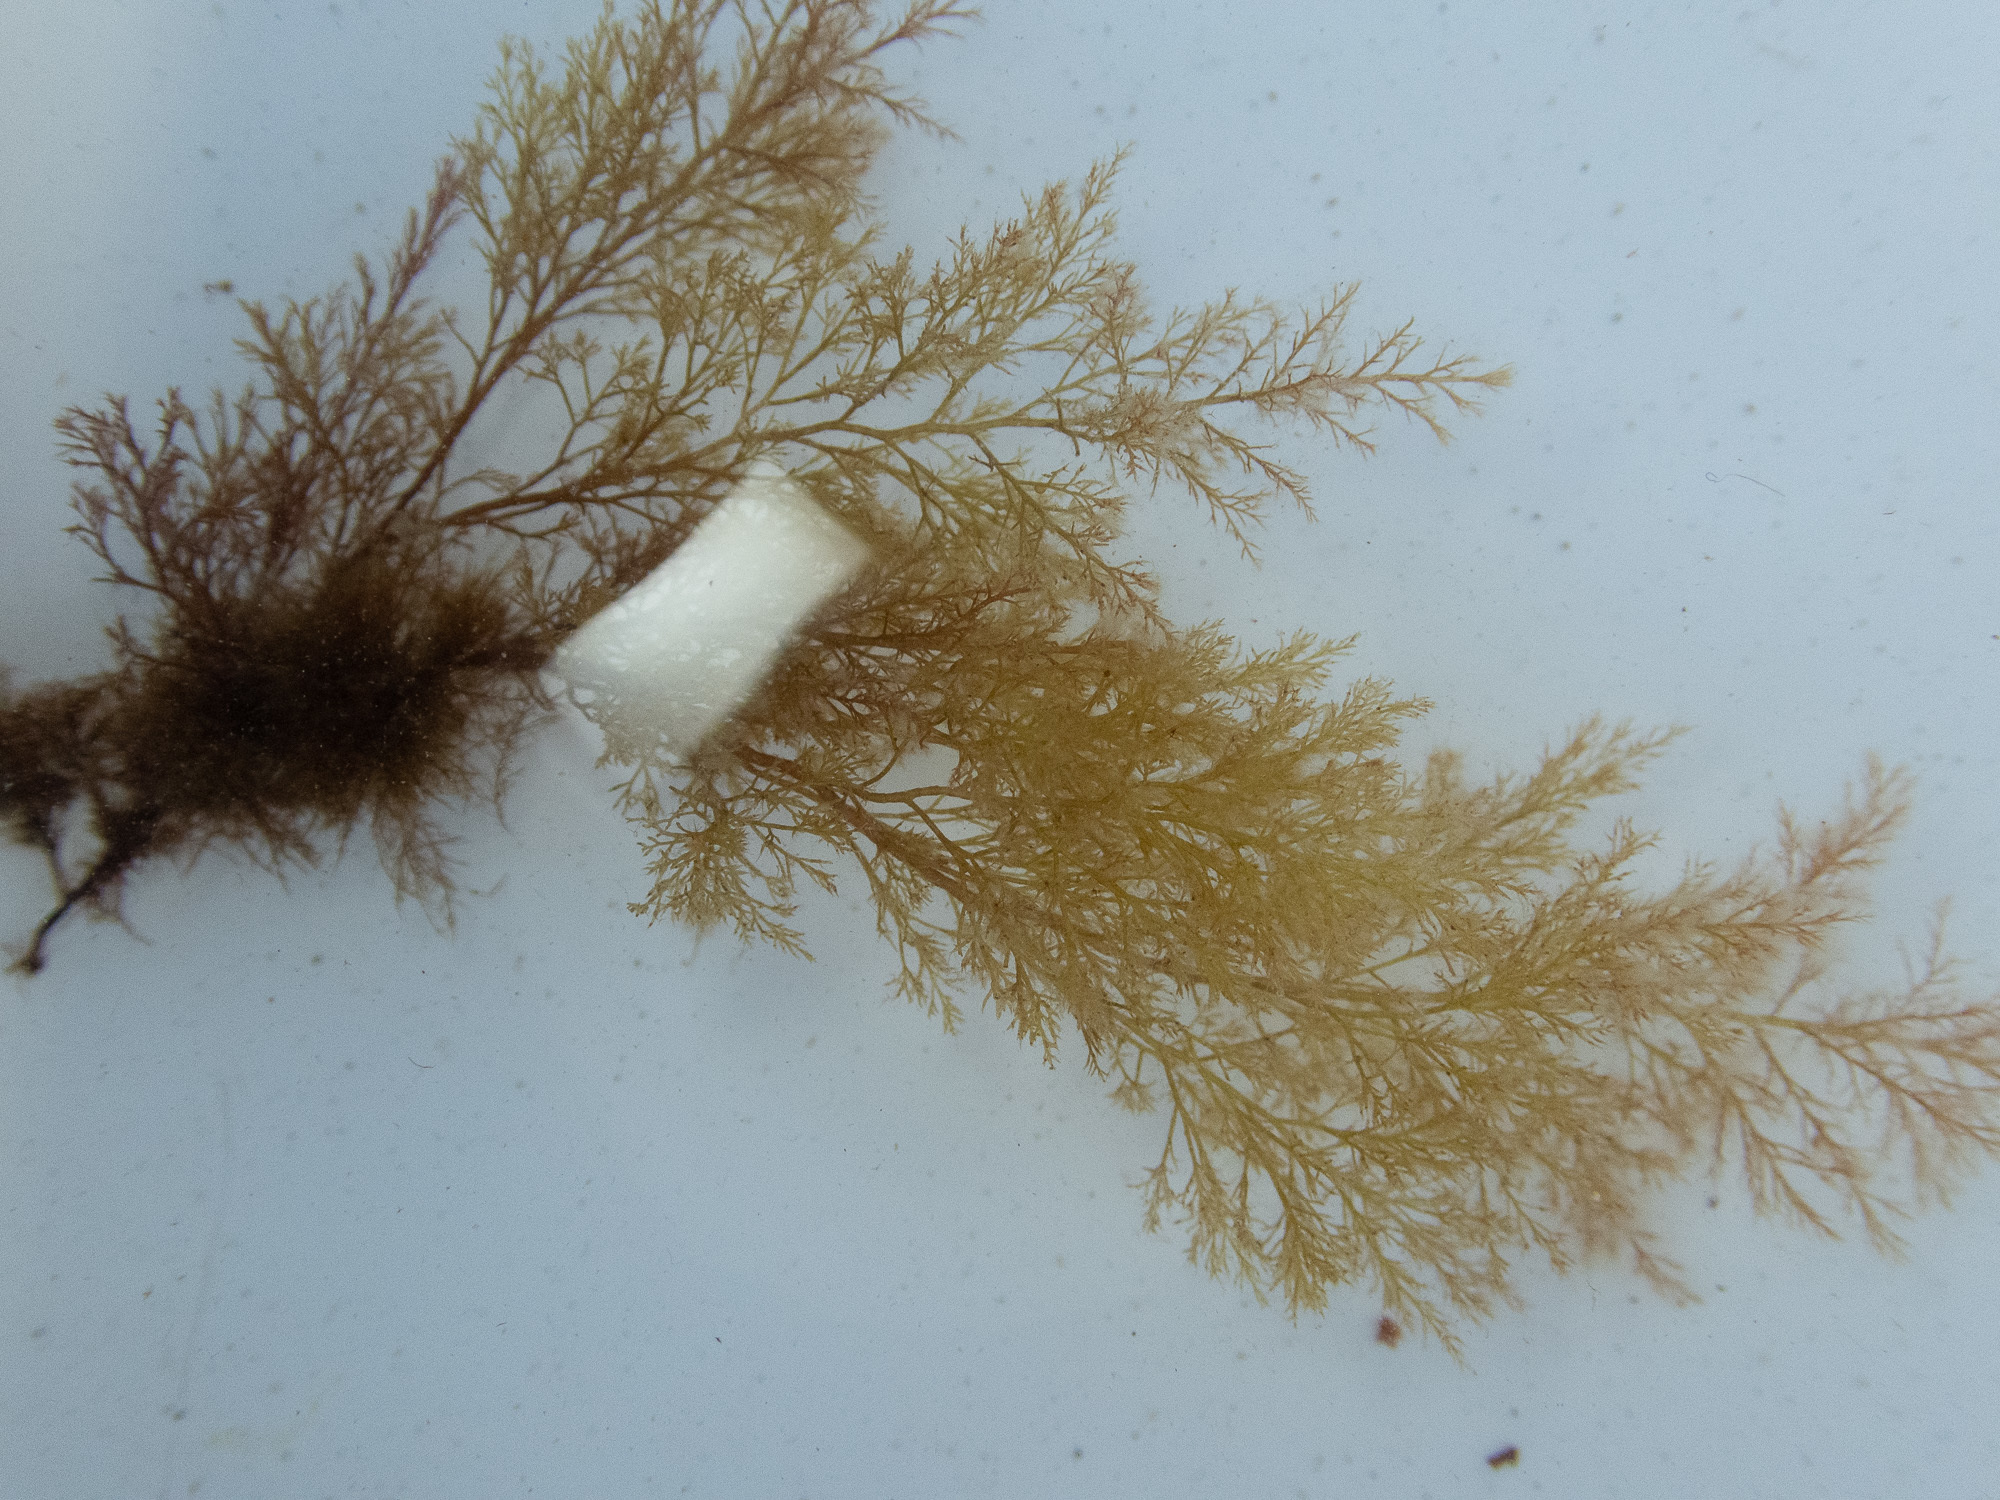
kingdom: Plantae
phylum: Rhodophyta
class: Florideophyceae
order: Ceramiales
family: Rhodomelaceae
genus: Vertebrata
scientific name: Vertebrata spec
